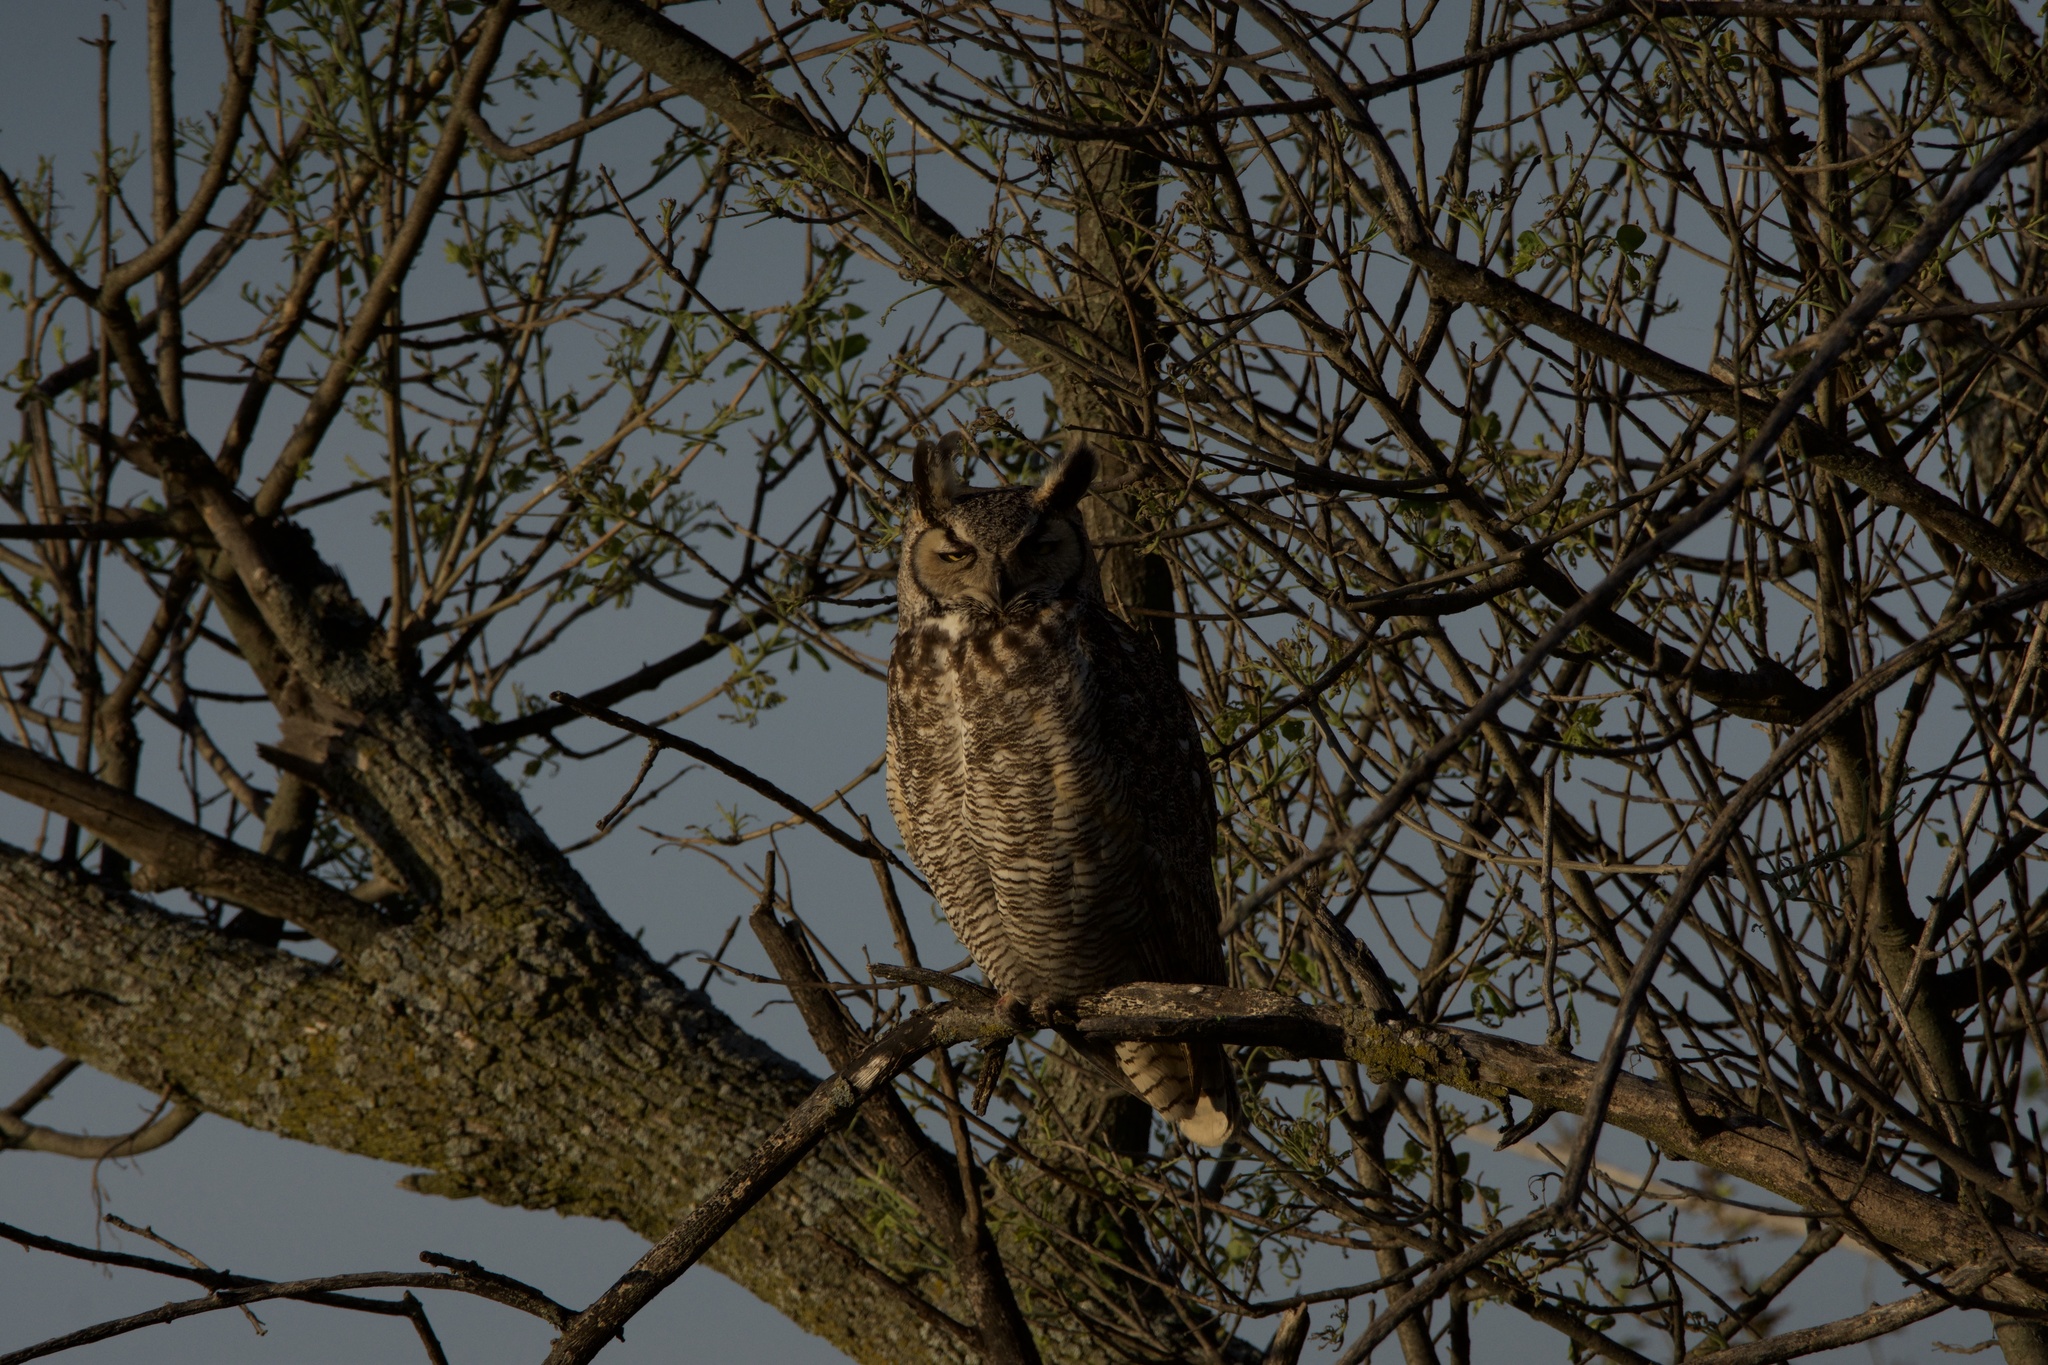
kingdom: Animalia
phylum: Chordata
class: Aves
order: Strigiformes
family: Strigidae
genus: Bubo
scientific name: Bubo virginianus
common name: Great horned owl
